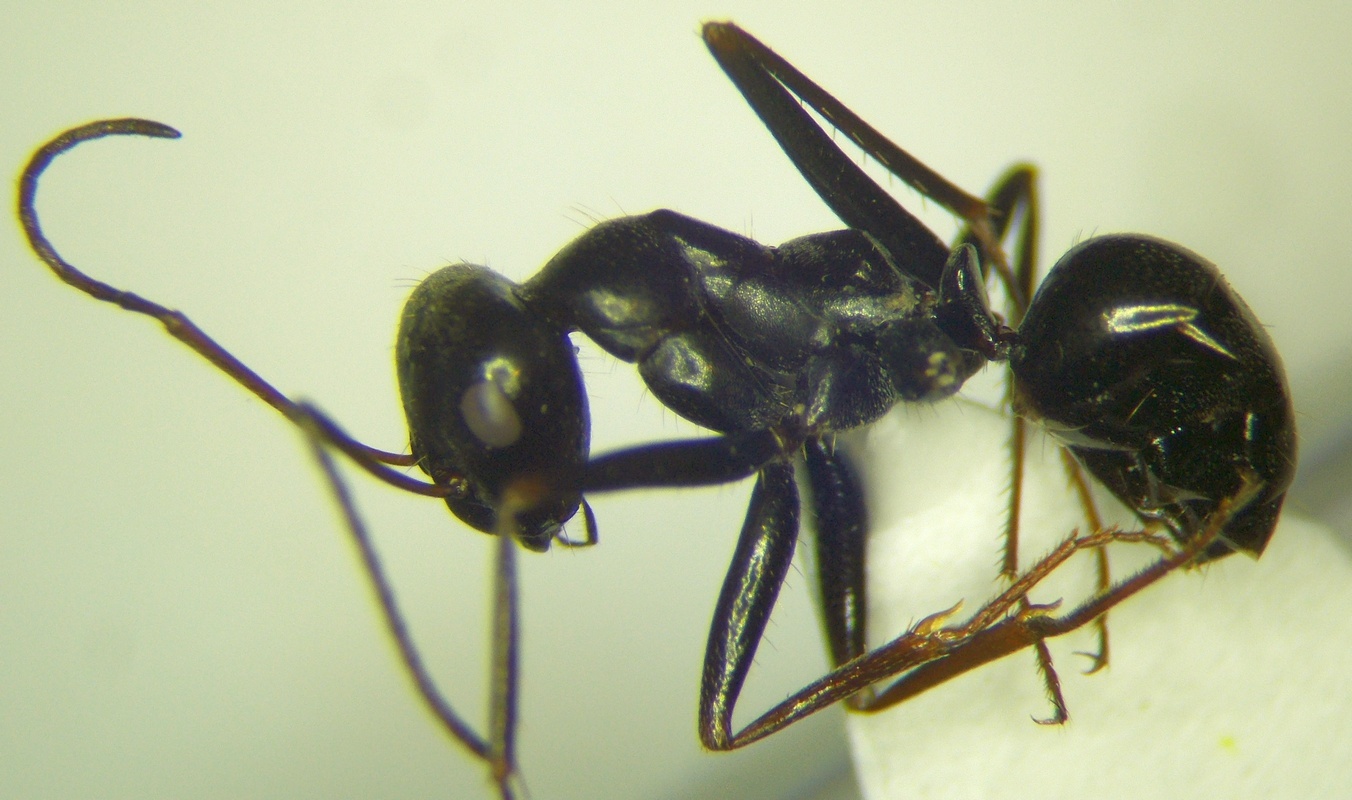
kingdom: Animalia
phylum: Arthropoda
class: Insecta
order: Hymenoptera
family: Formicidae
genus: Cataglyphis
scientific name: Cataglyphis aenescens
